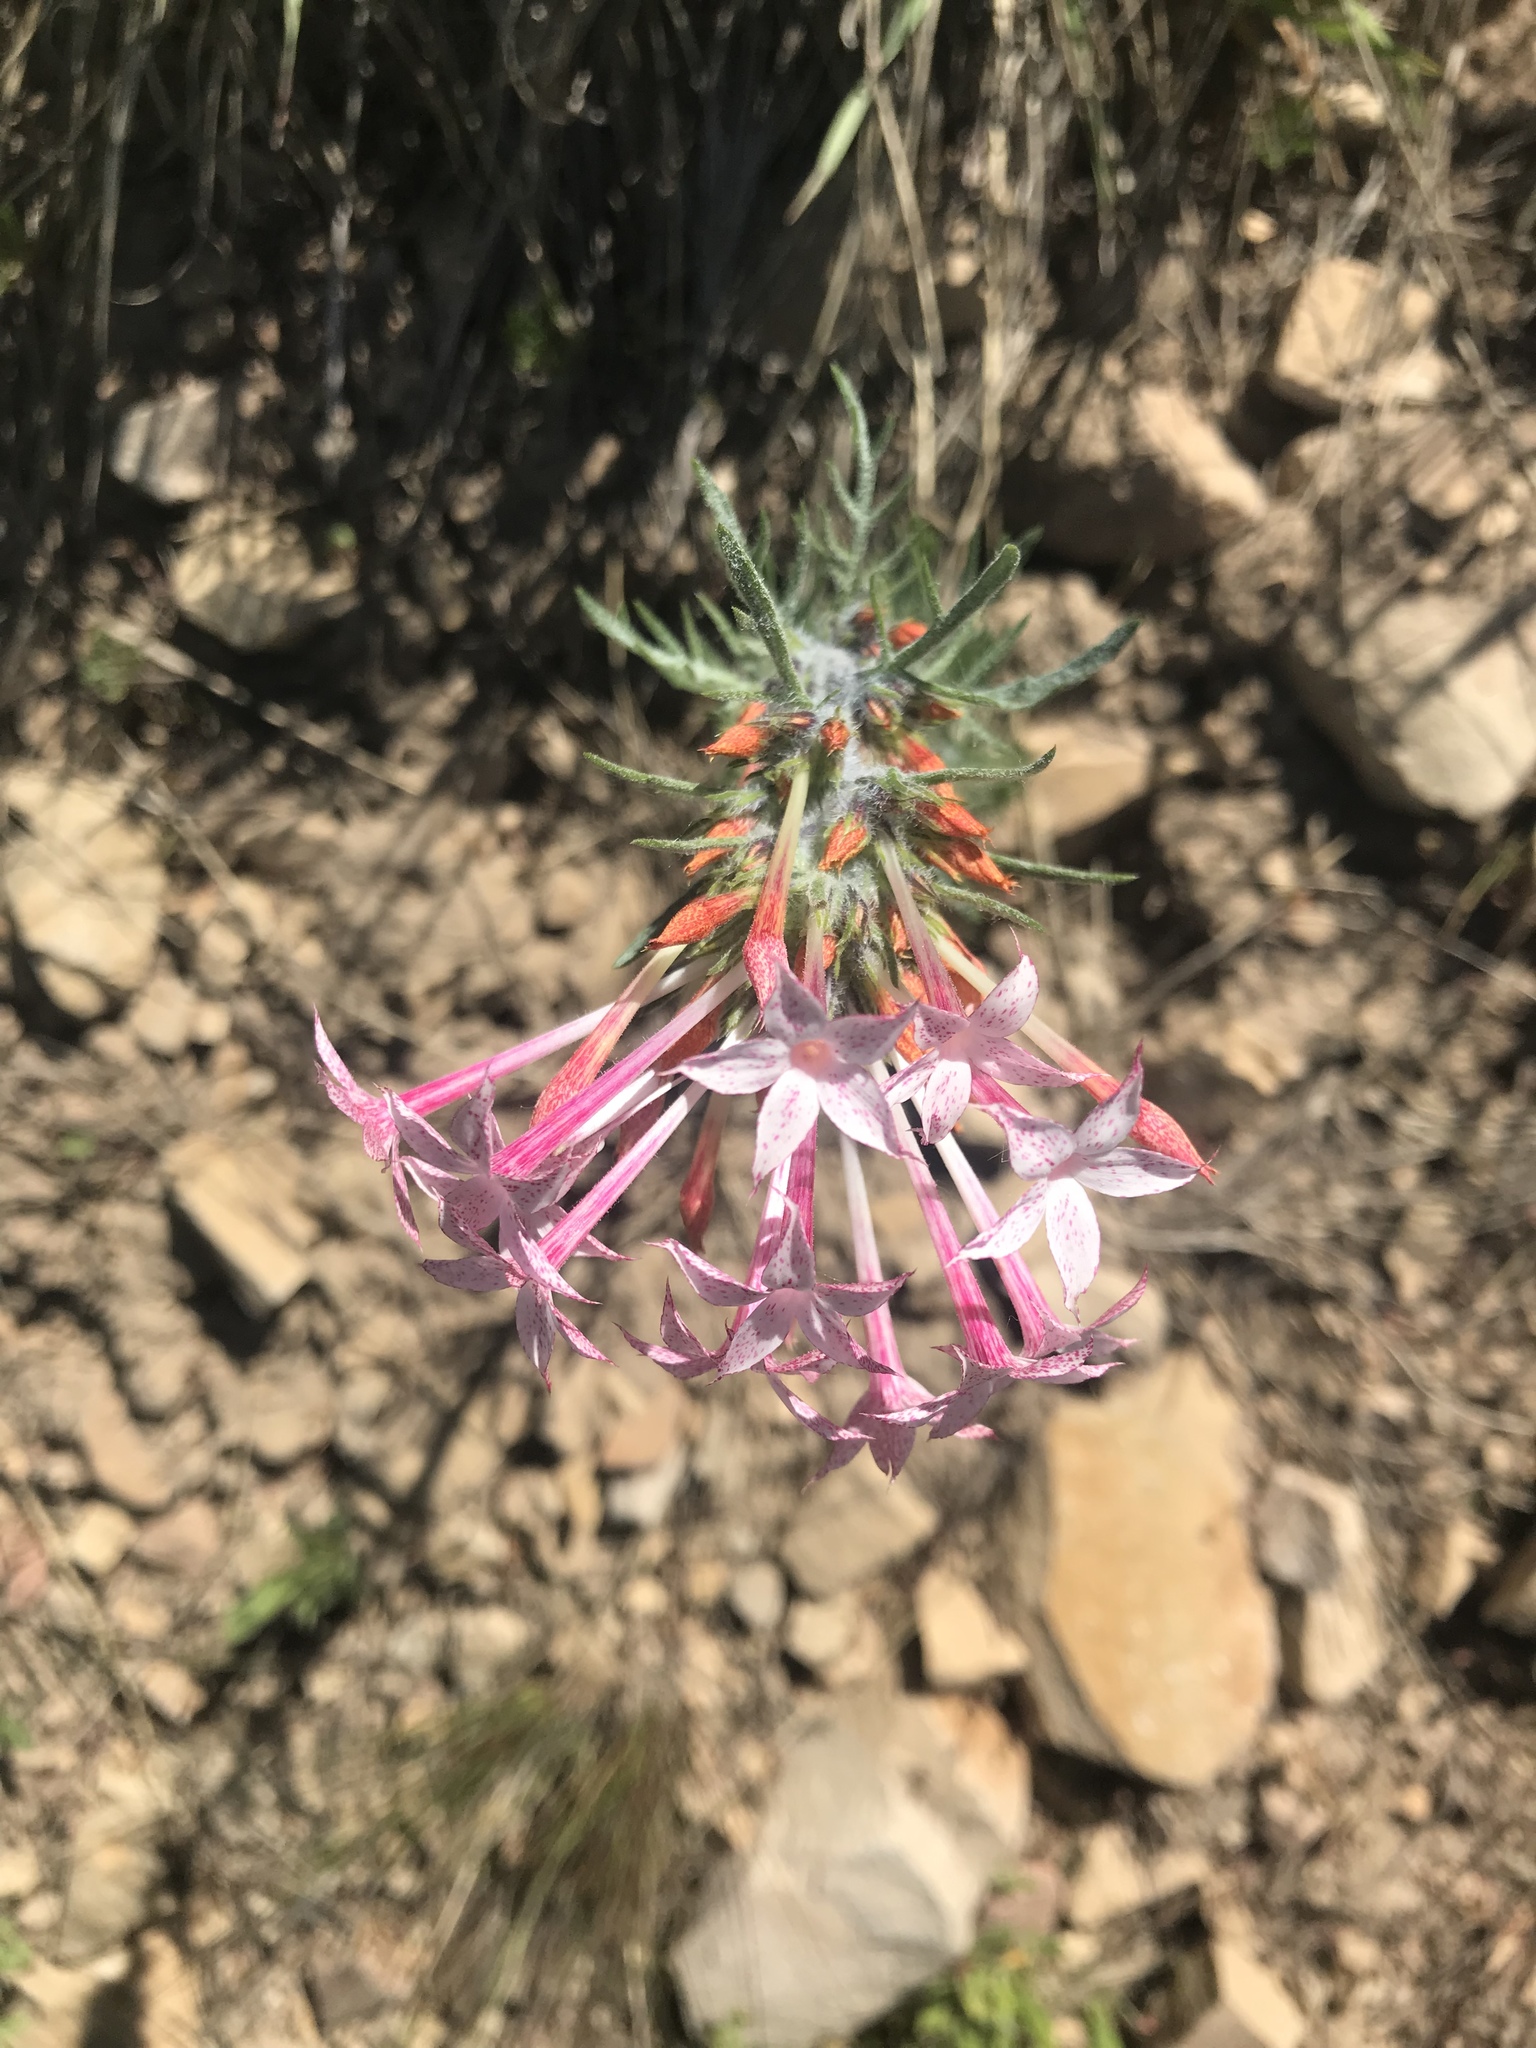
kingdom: Plantae
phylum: Tracheophyta
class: Magnoliopsida
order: Ericales
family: Polemoniaceae
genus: Ipomopsis
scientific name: Ipomopsis tenuituba
